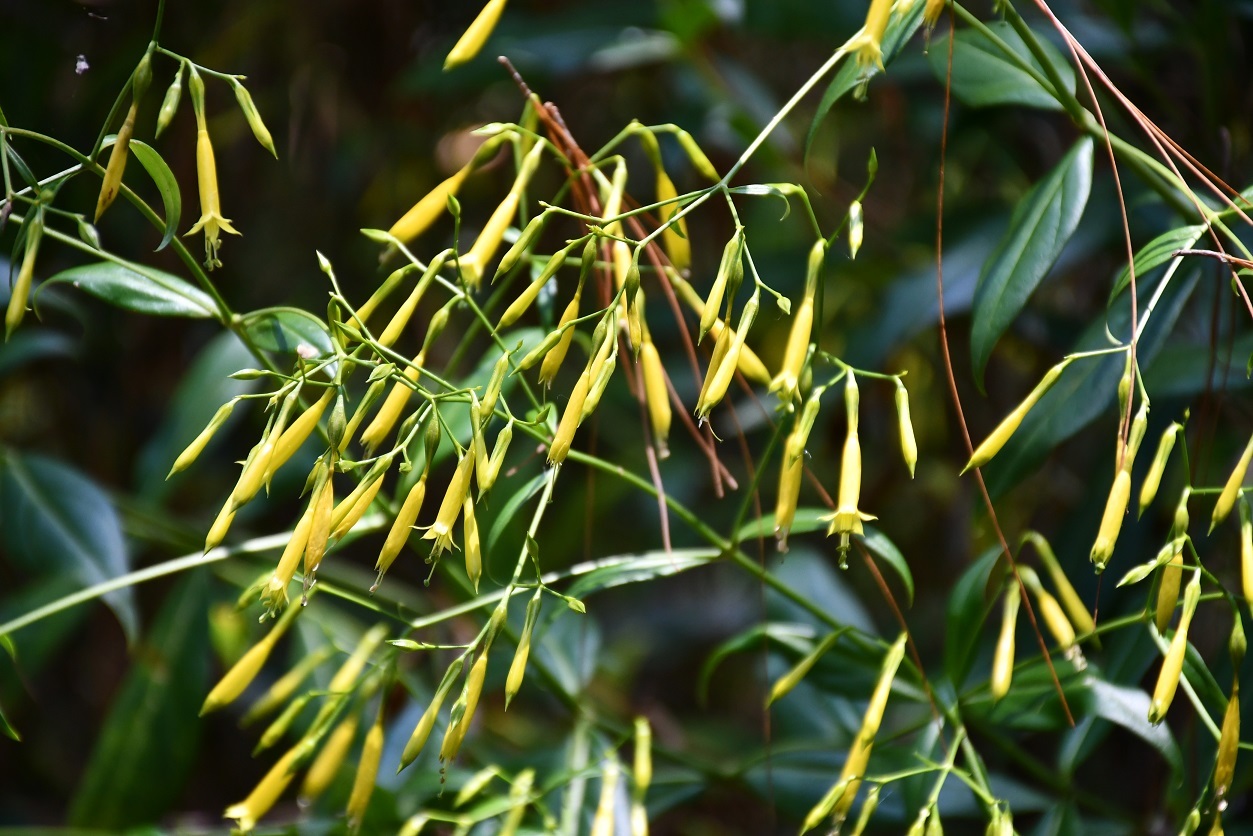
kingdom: Plantae
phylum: Tracheophyta
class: Magnoliopsida
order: Gentianales
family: Gentianaceae
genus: Lisianthius
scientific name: Lisianthius quichensis
